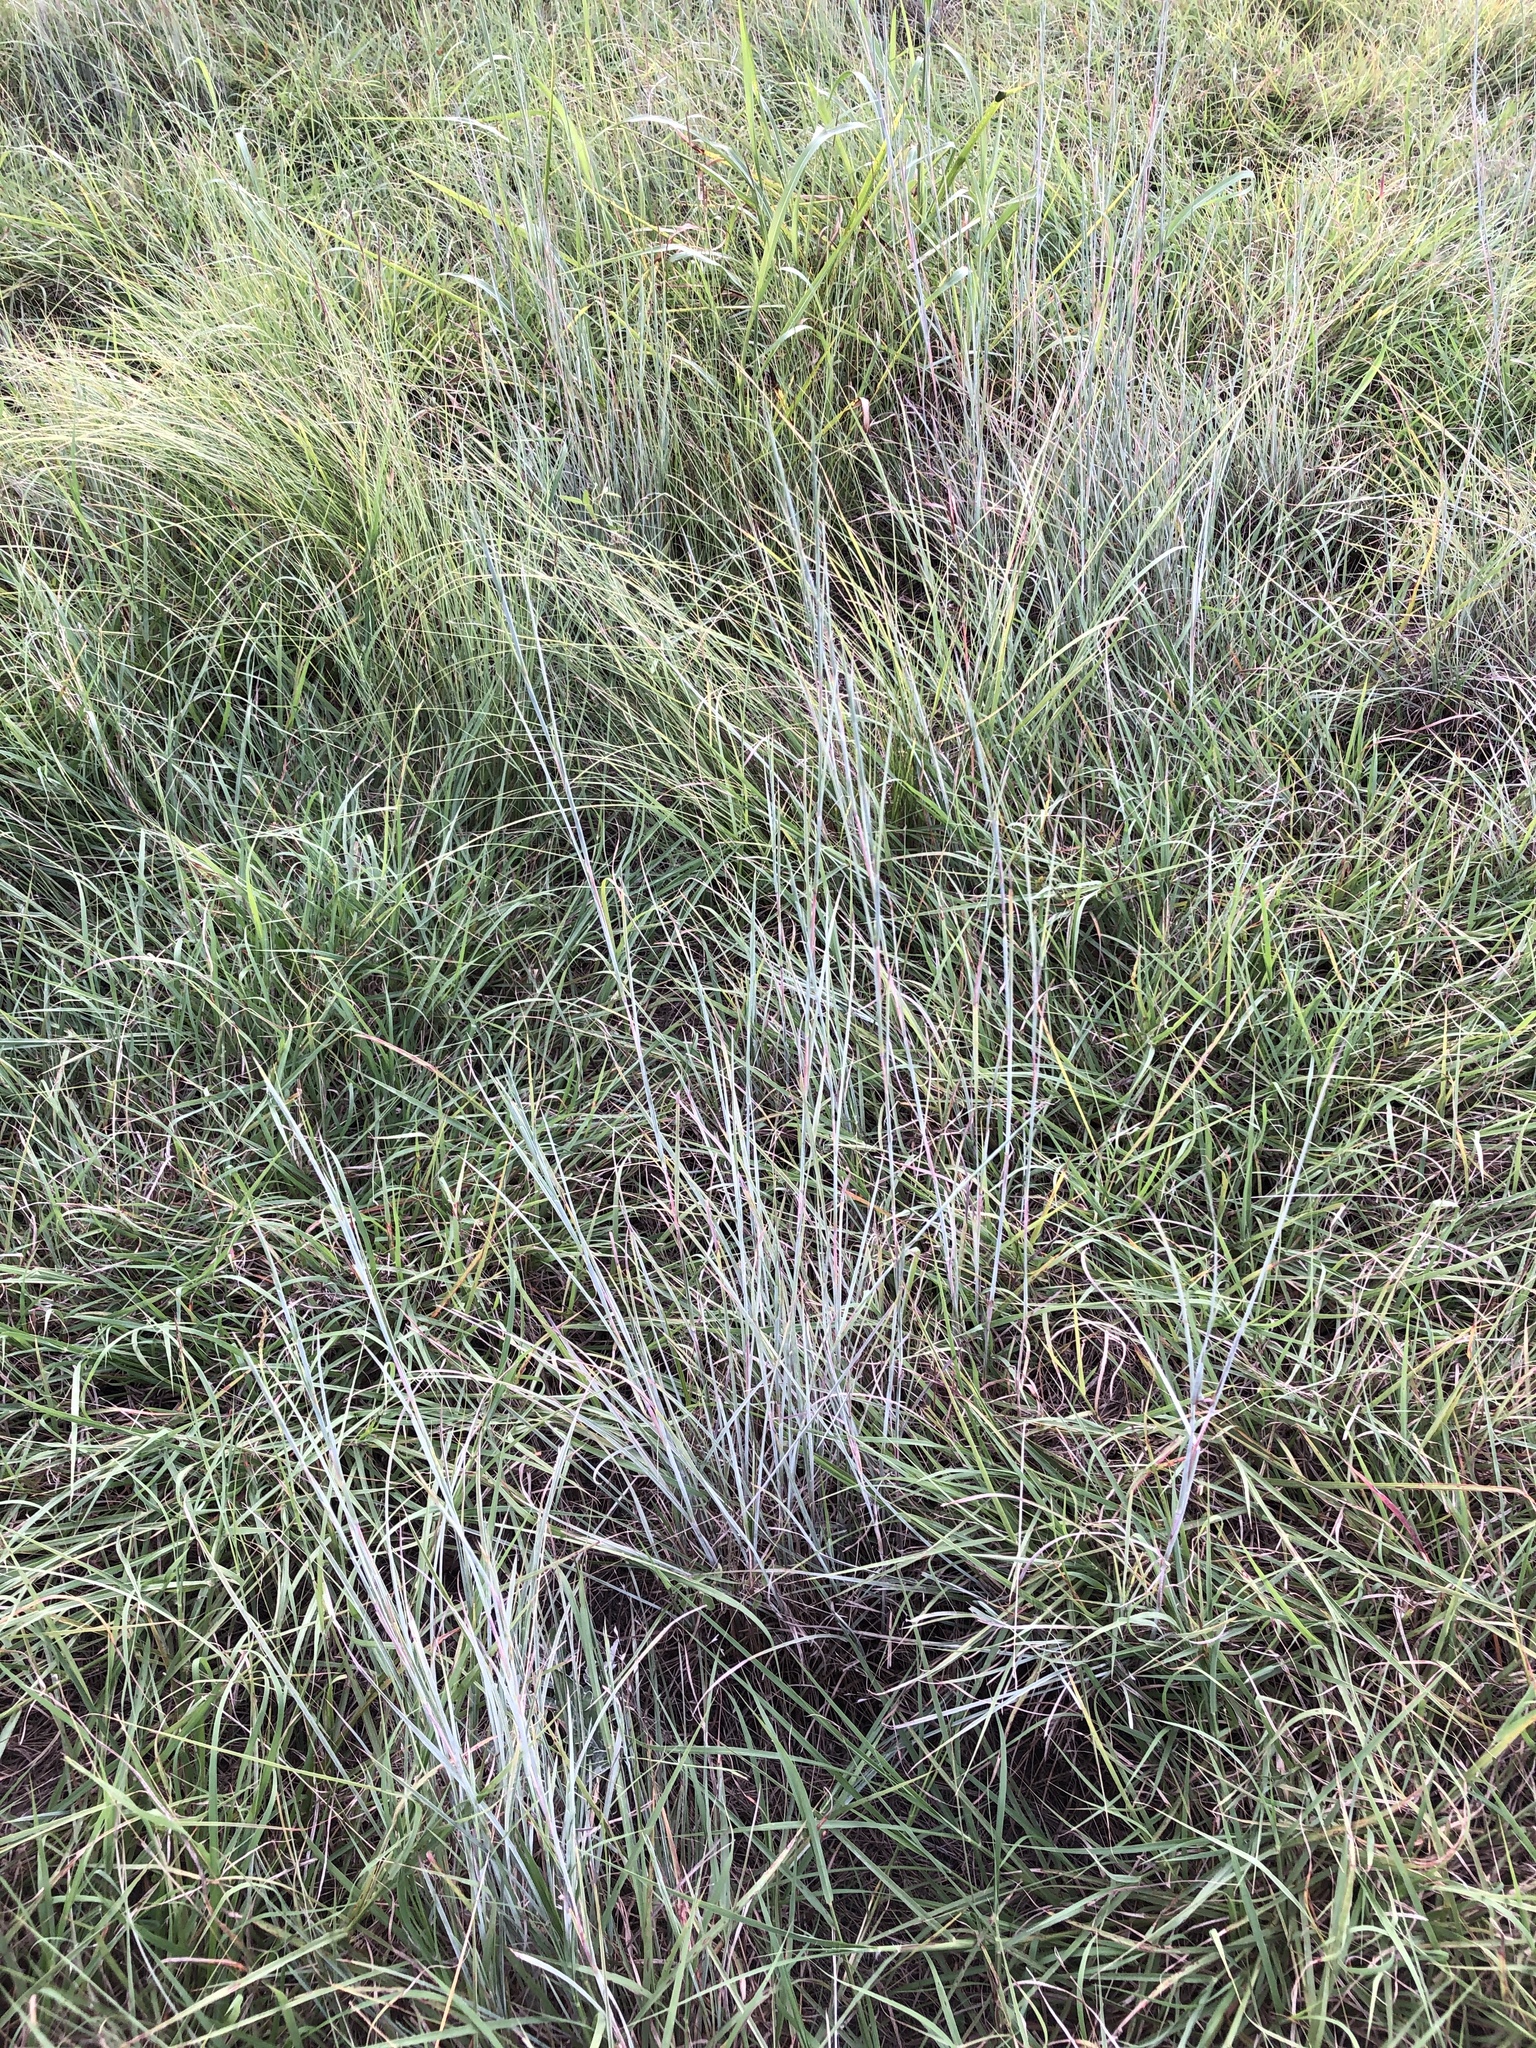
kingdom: Plantae
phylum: Tracheophyta
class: Liliopsida
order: Poales
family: Poaceae
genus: Schizachyrium
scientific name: Schizachyrium scoparium
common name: Little bluestem
